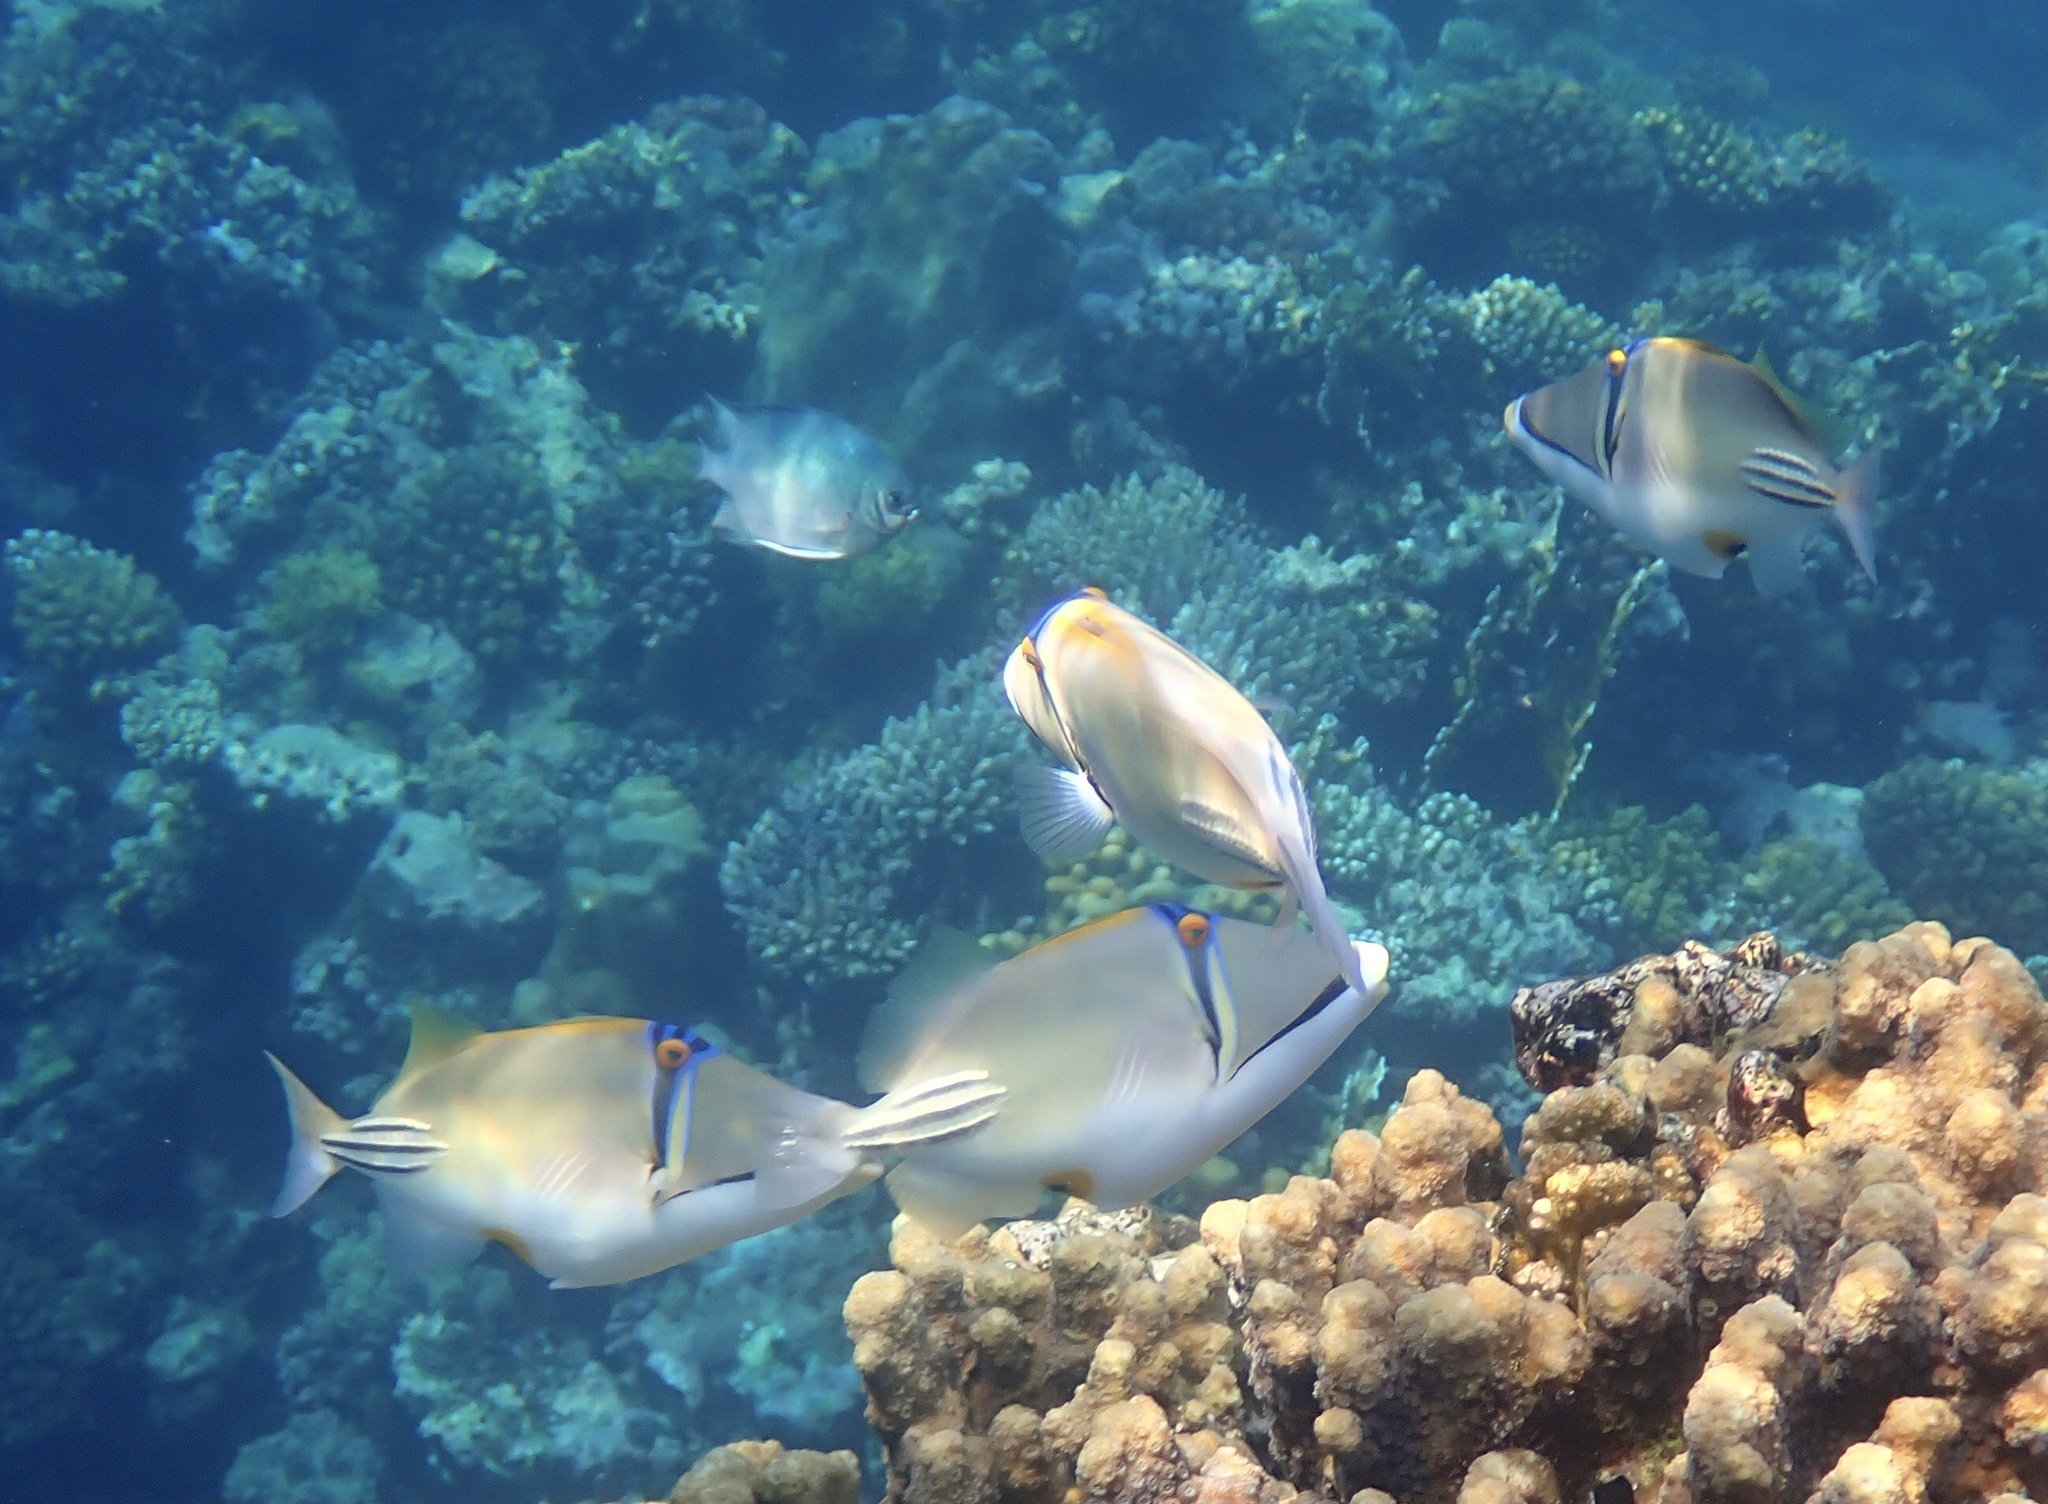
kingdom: Animalia
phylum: Chordata
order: Tetraodontiformes
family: Balistidae
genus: Rhinecanthus
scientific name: Rhinecanthus assasi
